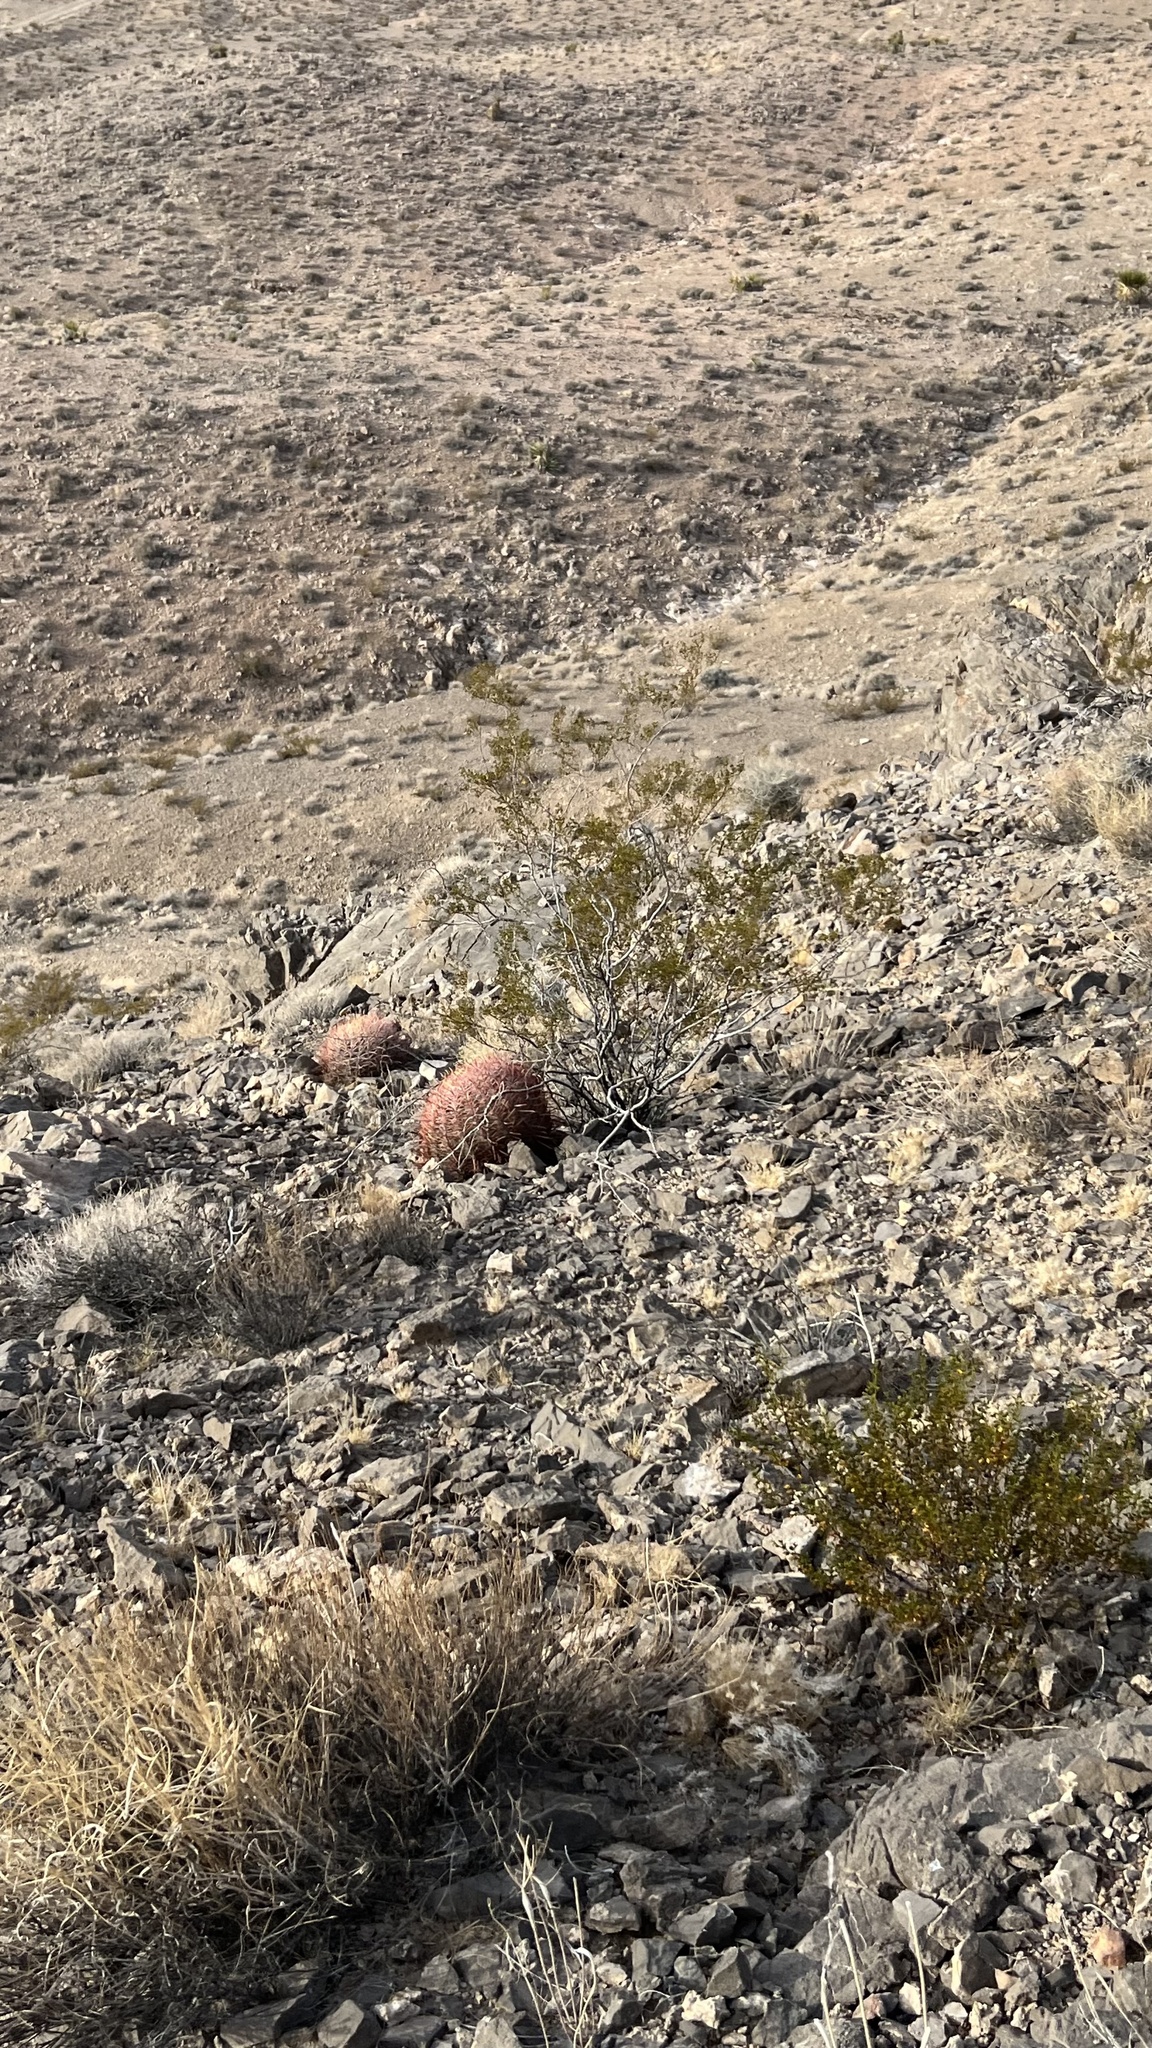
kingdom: Plantae
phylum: Tracheophyta
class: Magnoliopsida
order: Zygophyllales
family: Zygophyllaceae
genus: Larrea
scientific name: Larrea tridentata
